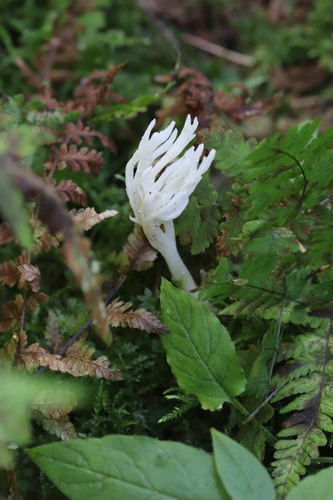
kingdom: Fungi
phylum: Basidiomycota
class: Agaricomycetes
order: Cantharellales
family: Hydnaceae
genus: Clavulina
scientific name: Clavulina rugosa
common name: Wrinkled club
